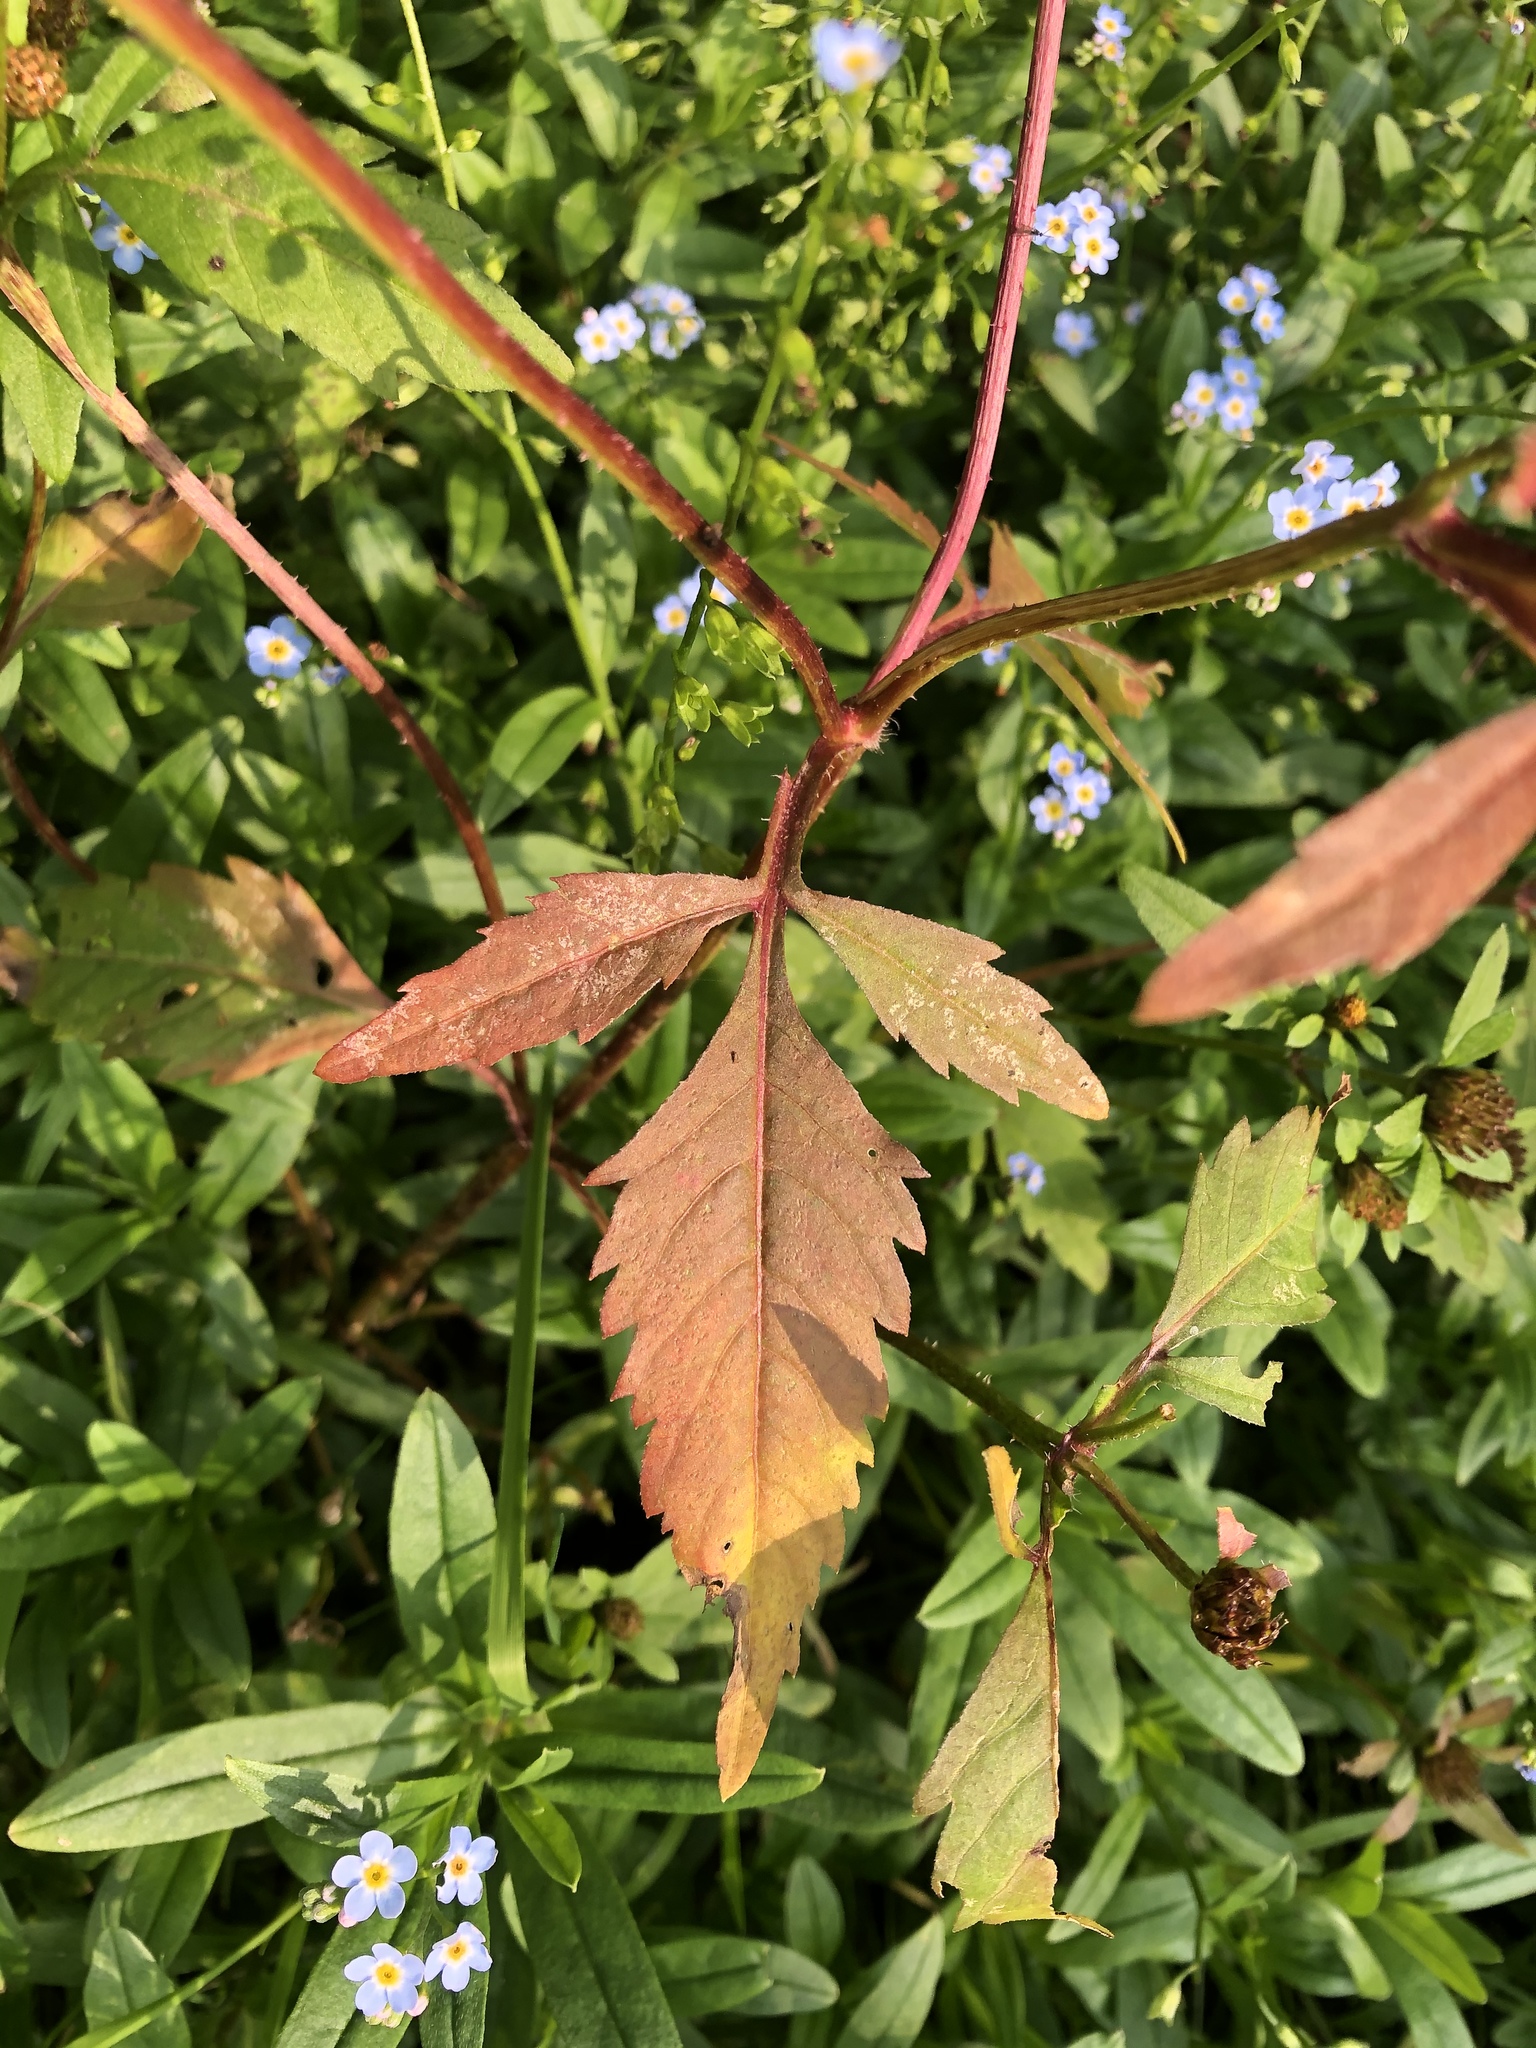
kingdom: Plantae
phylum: Tracheophyta
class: Magnoliopsida
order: Asterales
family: Asteraceae
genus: Bidens
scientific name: Bidens tripartita
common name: Trifid bur-marigold
